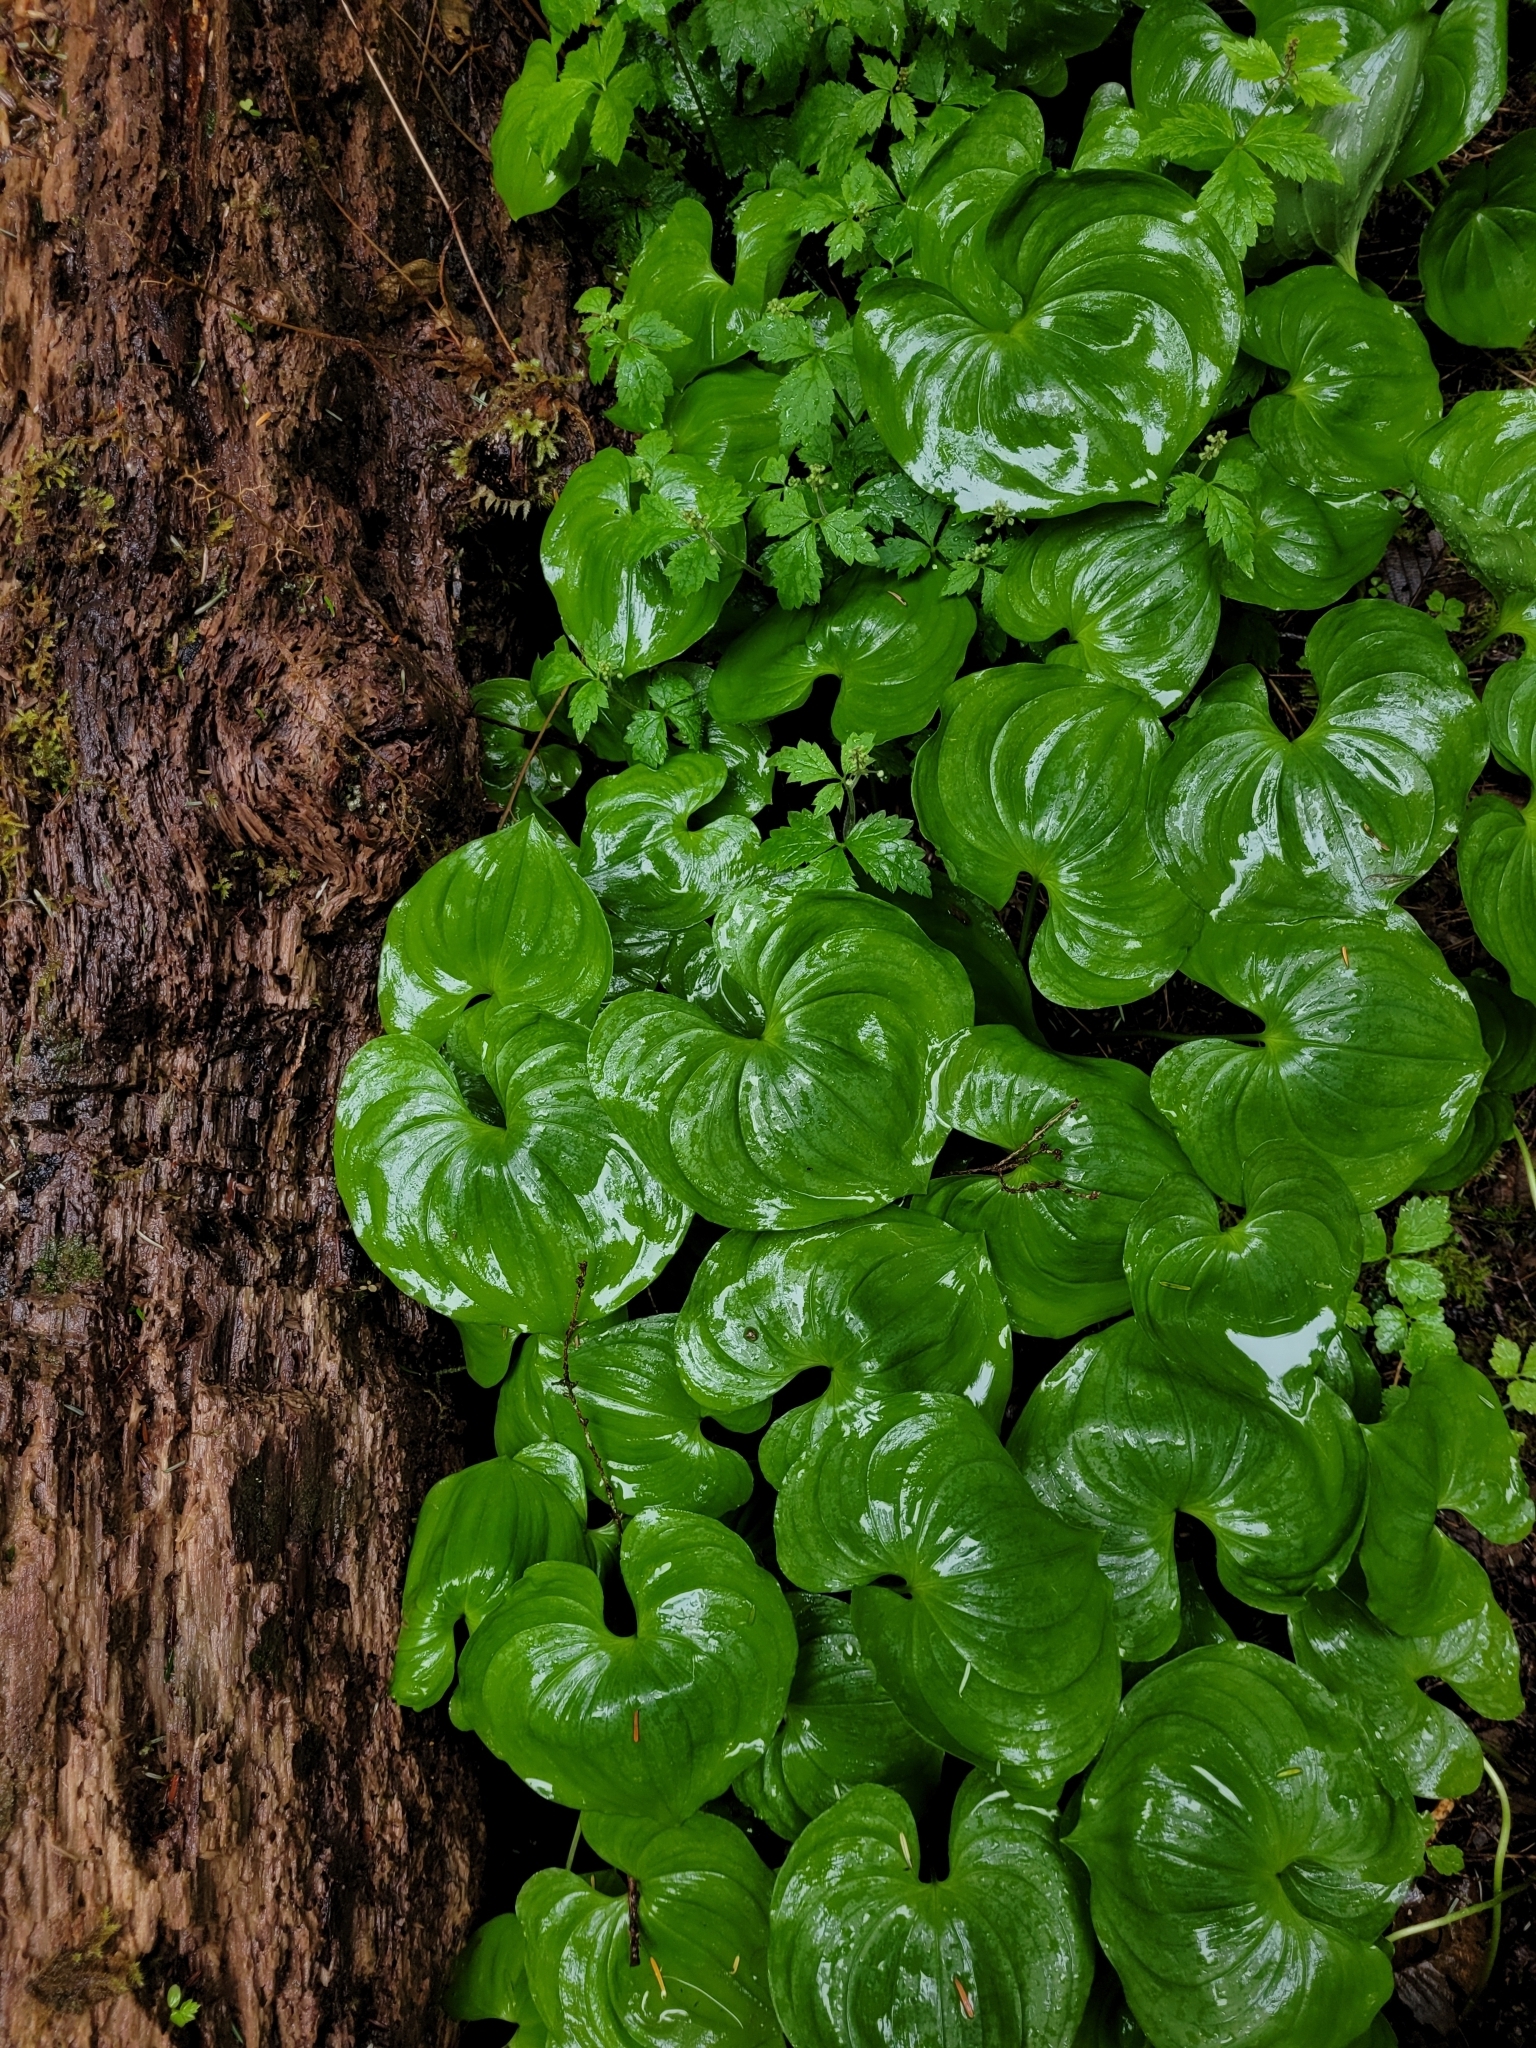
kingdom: Plantae
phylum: Tracheophyta
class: Liliopsida
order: Asparagales
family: Asparagaceae
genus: Maianthemum
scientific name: Maianthemum dilatatum
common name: False lily-of-the-valley
